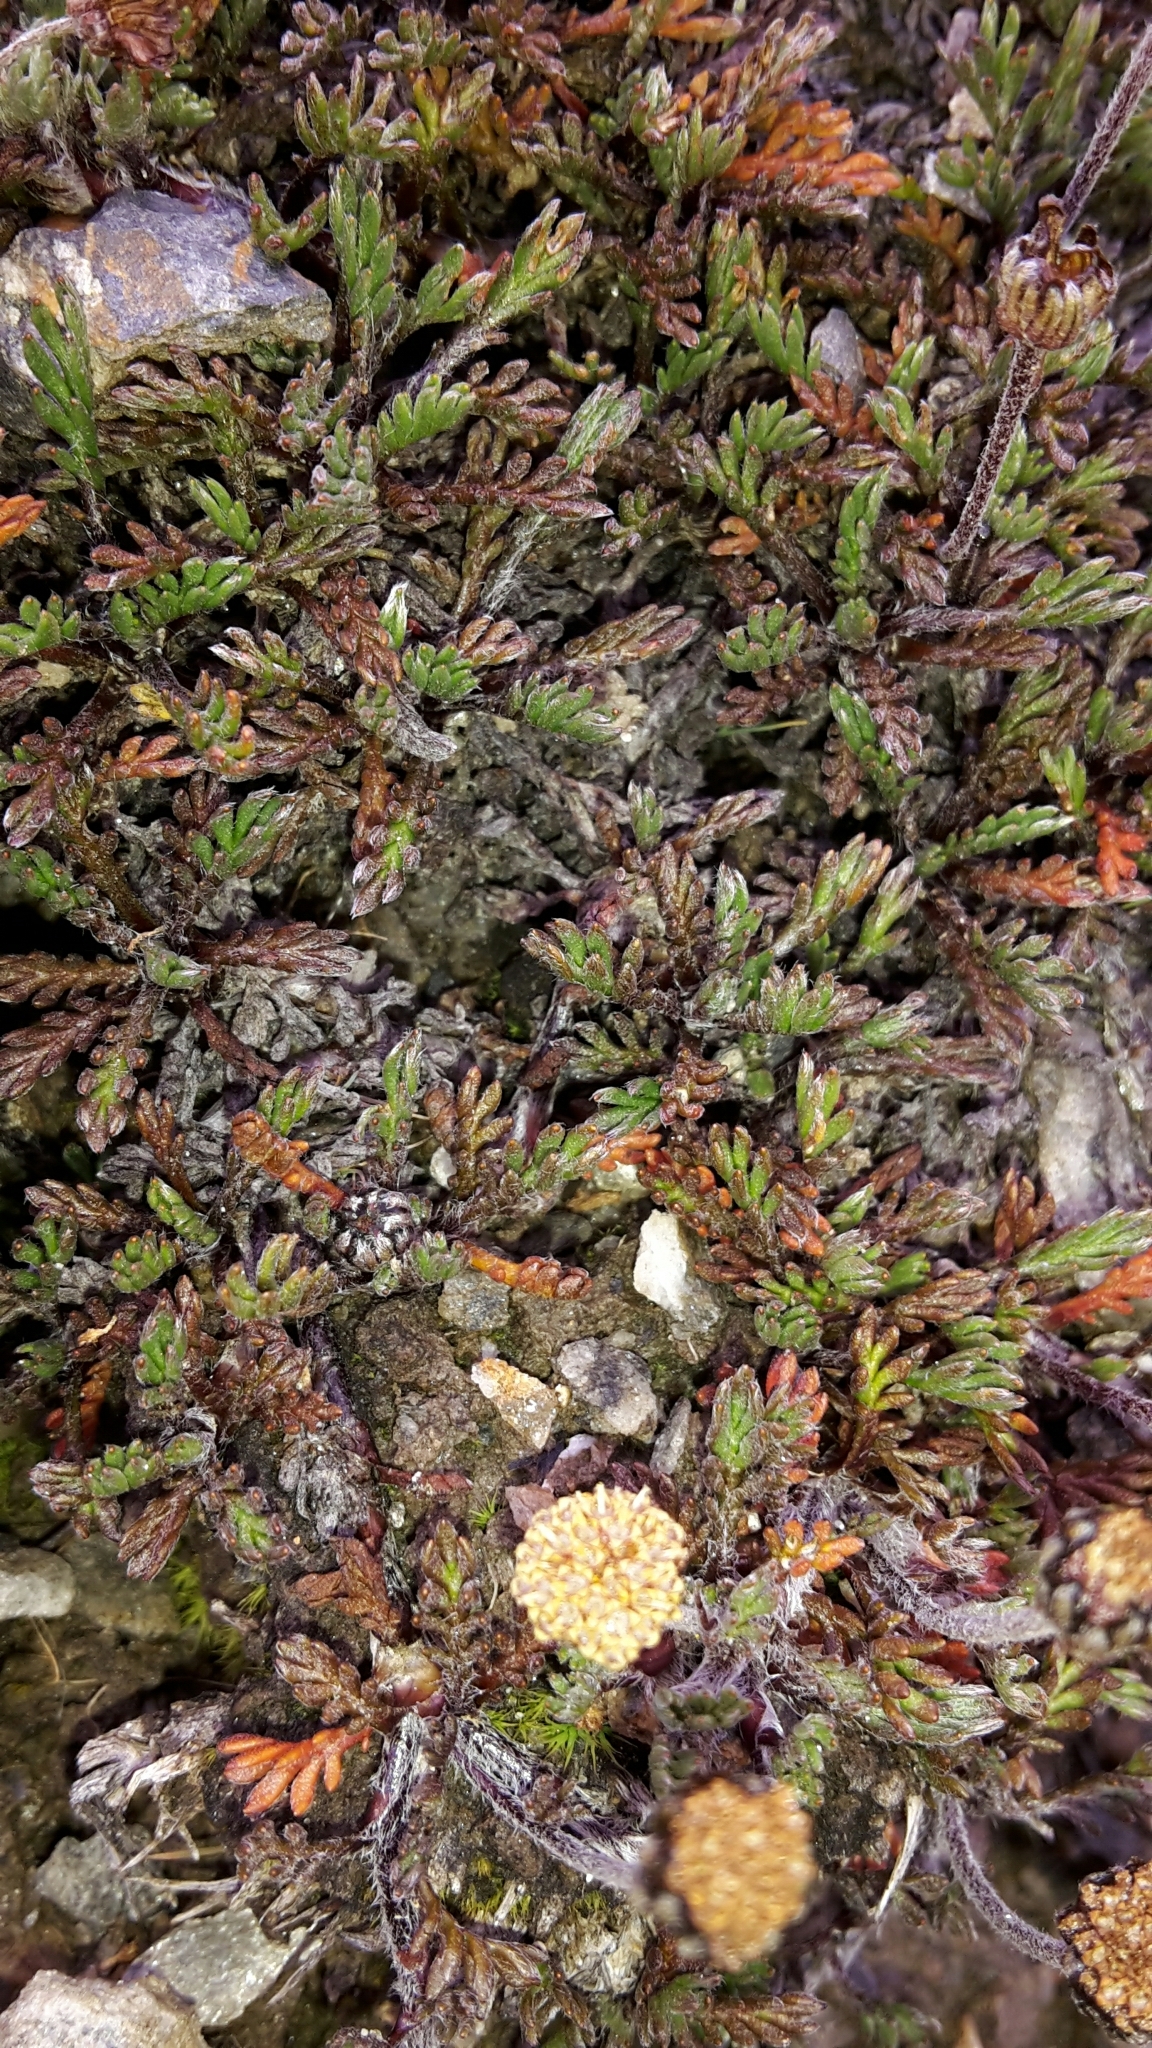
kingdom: Plantae
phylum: Tracheophyta
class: Magnoliopsida
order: Asterales
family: Asteraceae
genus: Leptinella
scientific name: Leptinella pectinata
